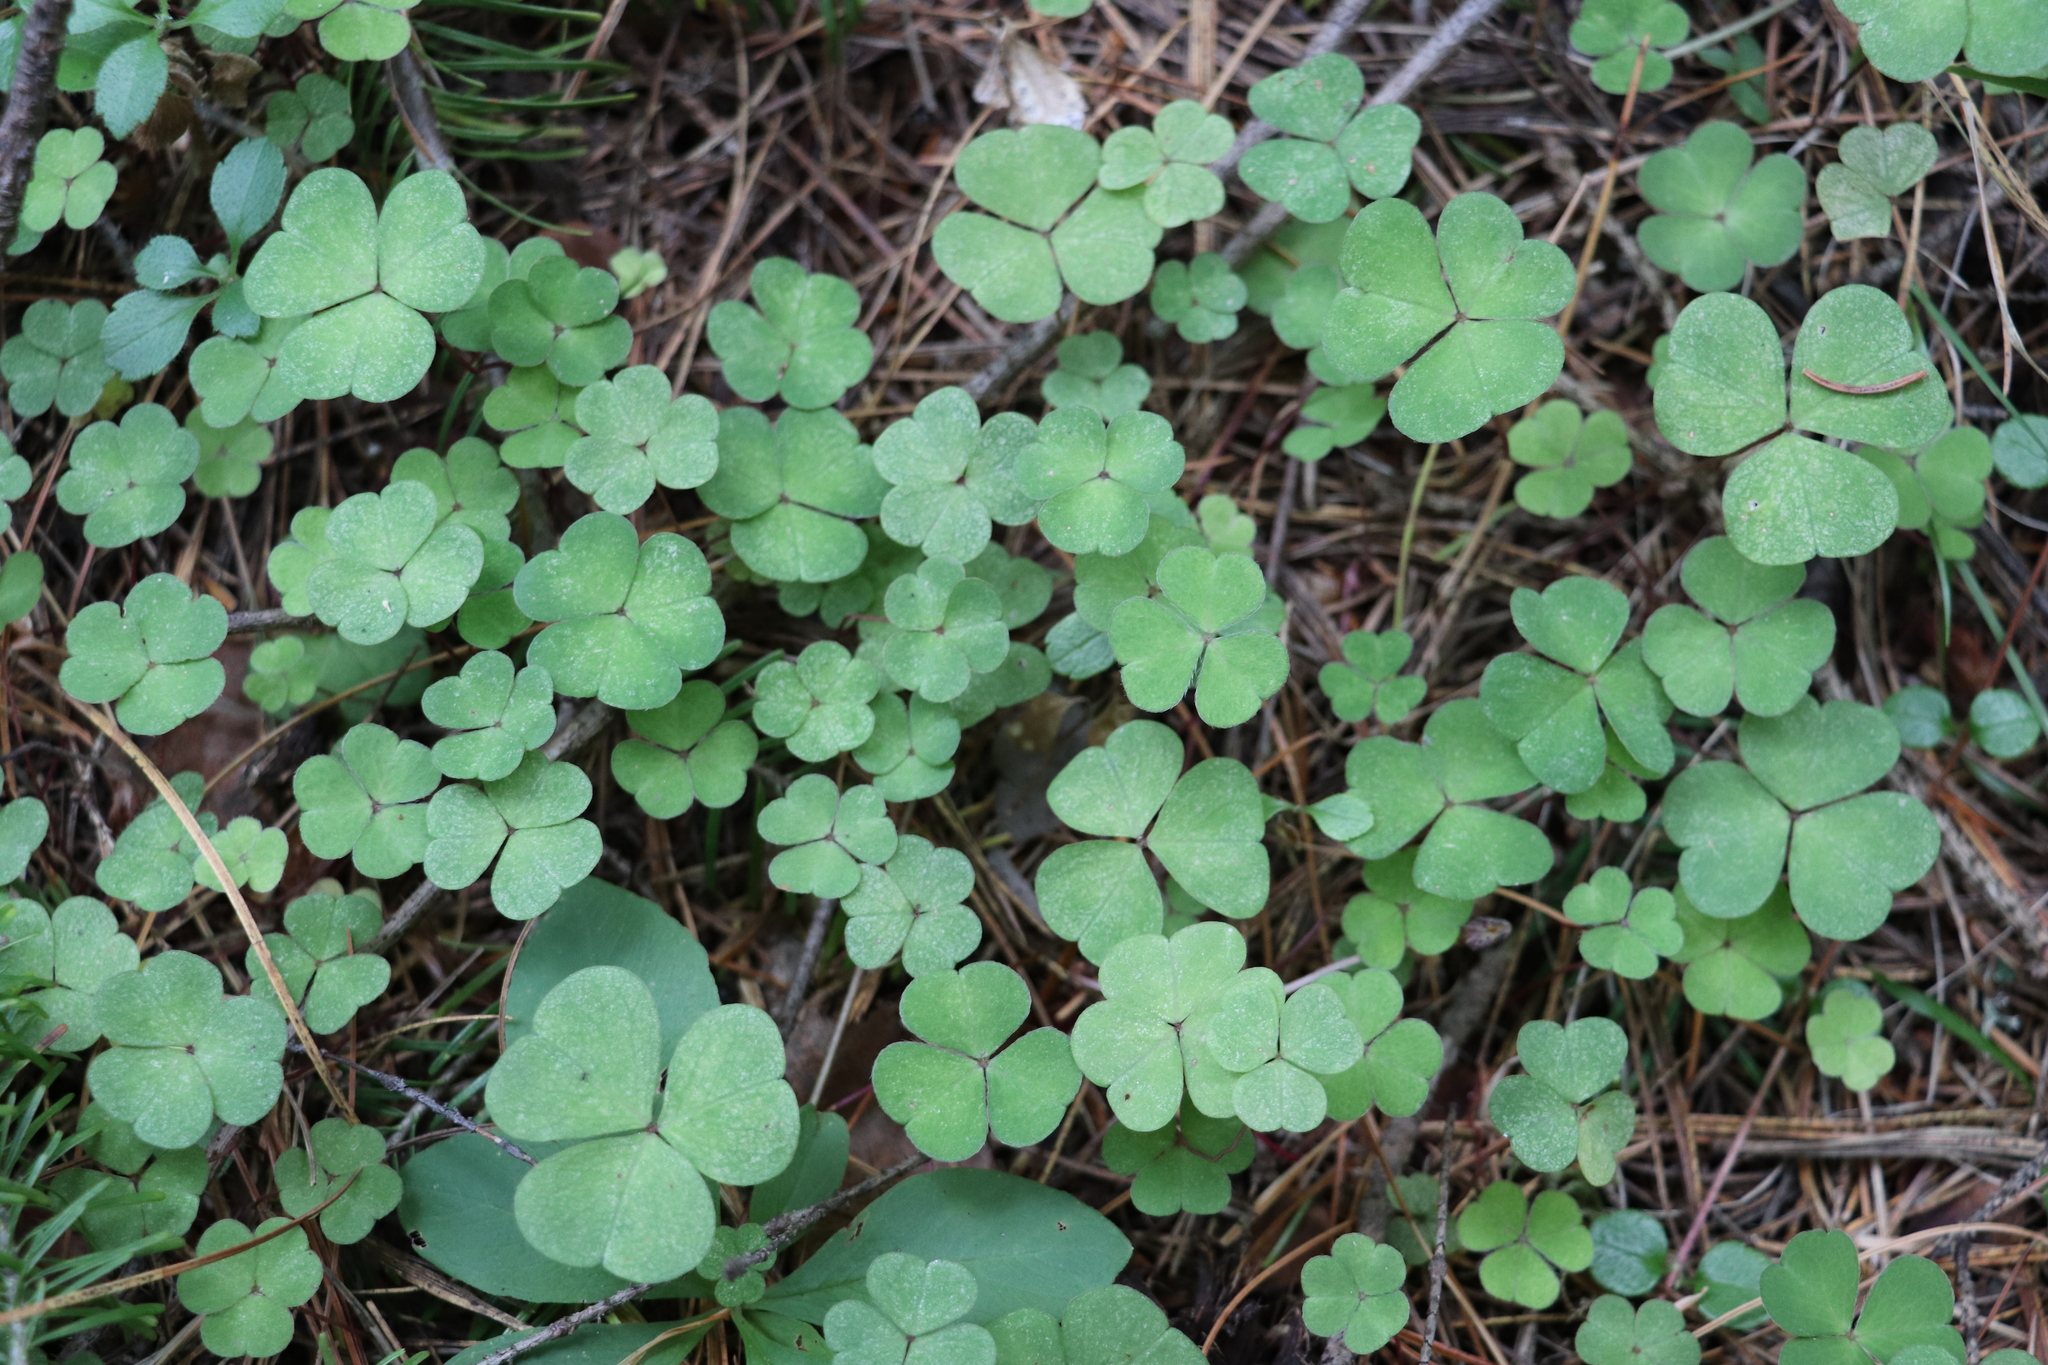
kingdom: Plantae
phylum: Tracheophyta
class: Magnoliopsida
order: Oxalidales
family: Oxalidaceae
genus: Oxalis
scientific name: Oxalis acetosella
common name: Wood-sorrel
